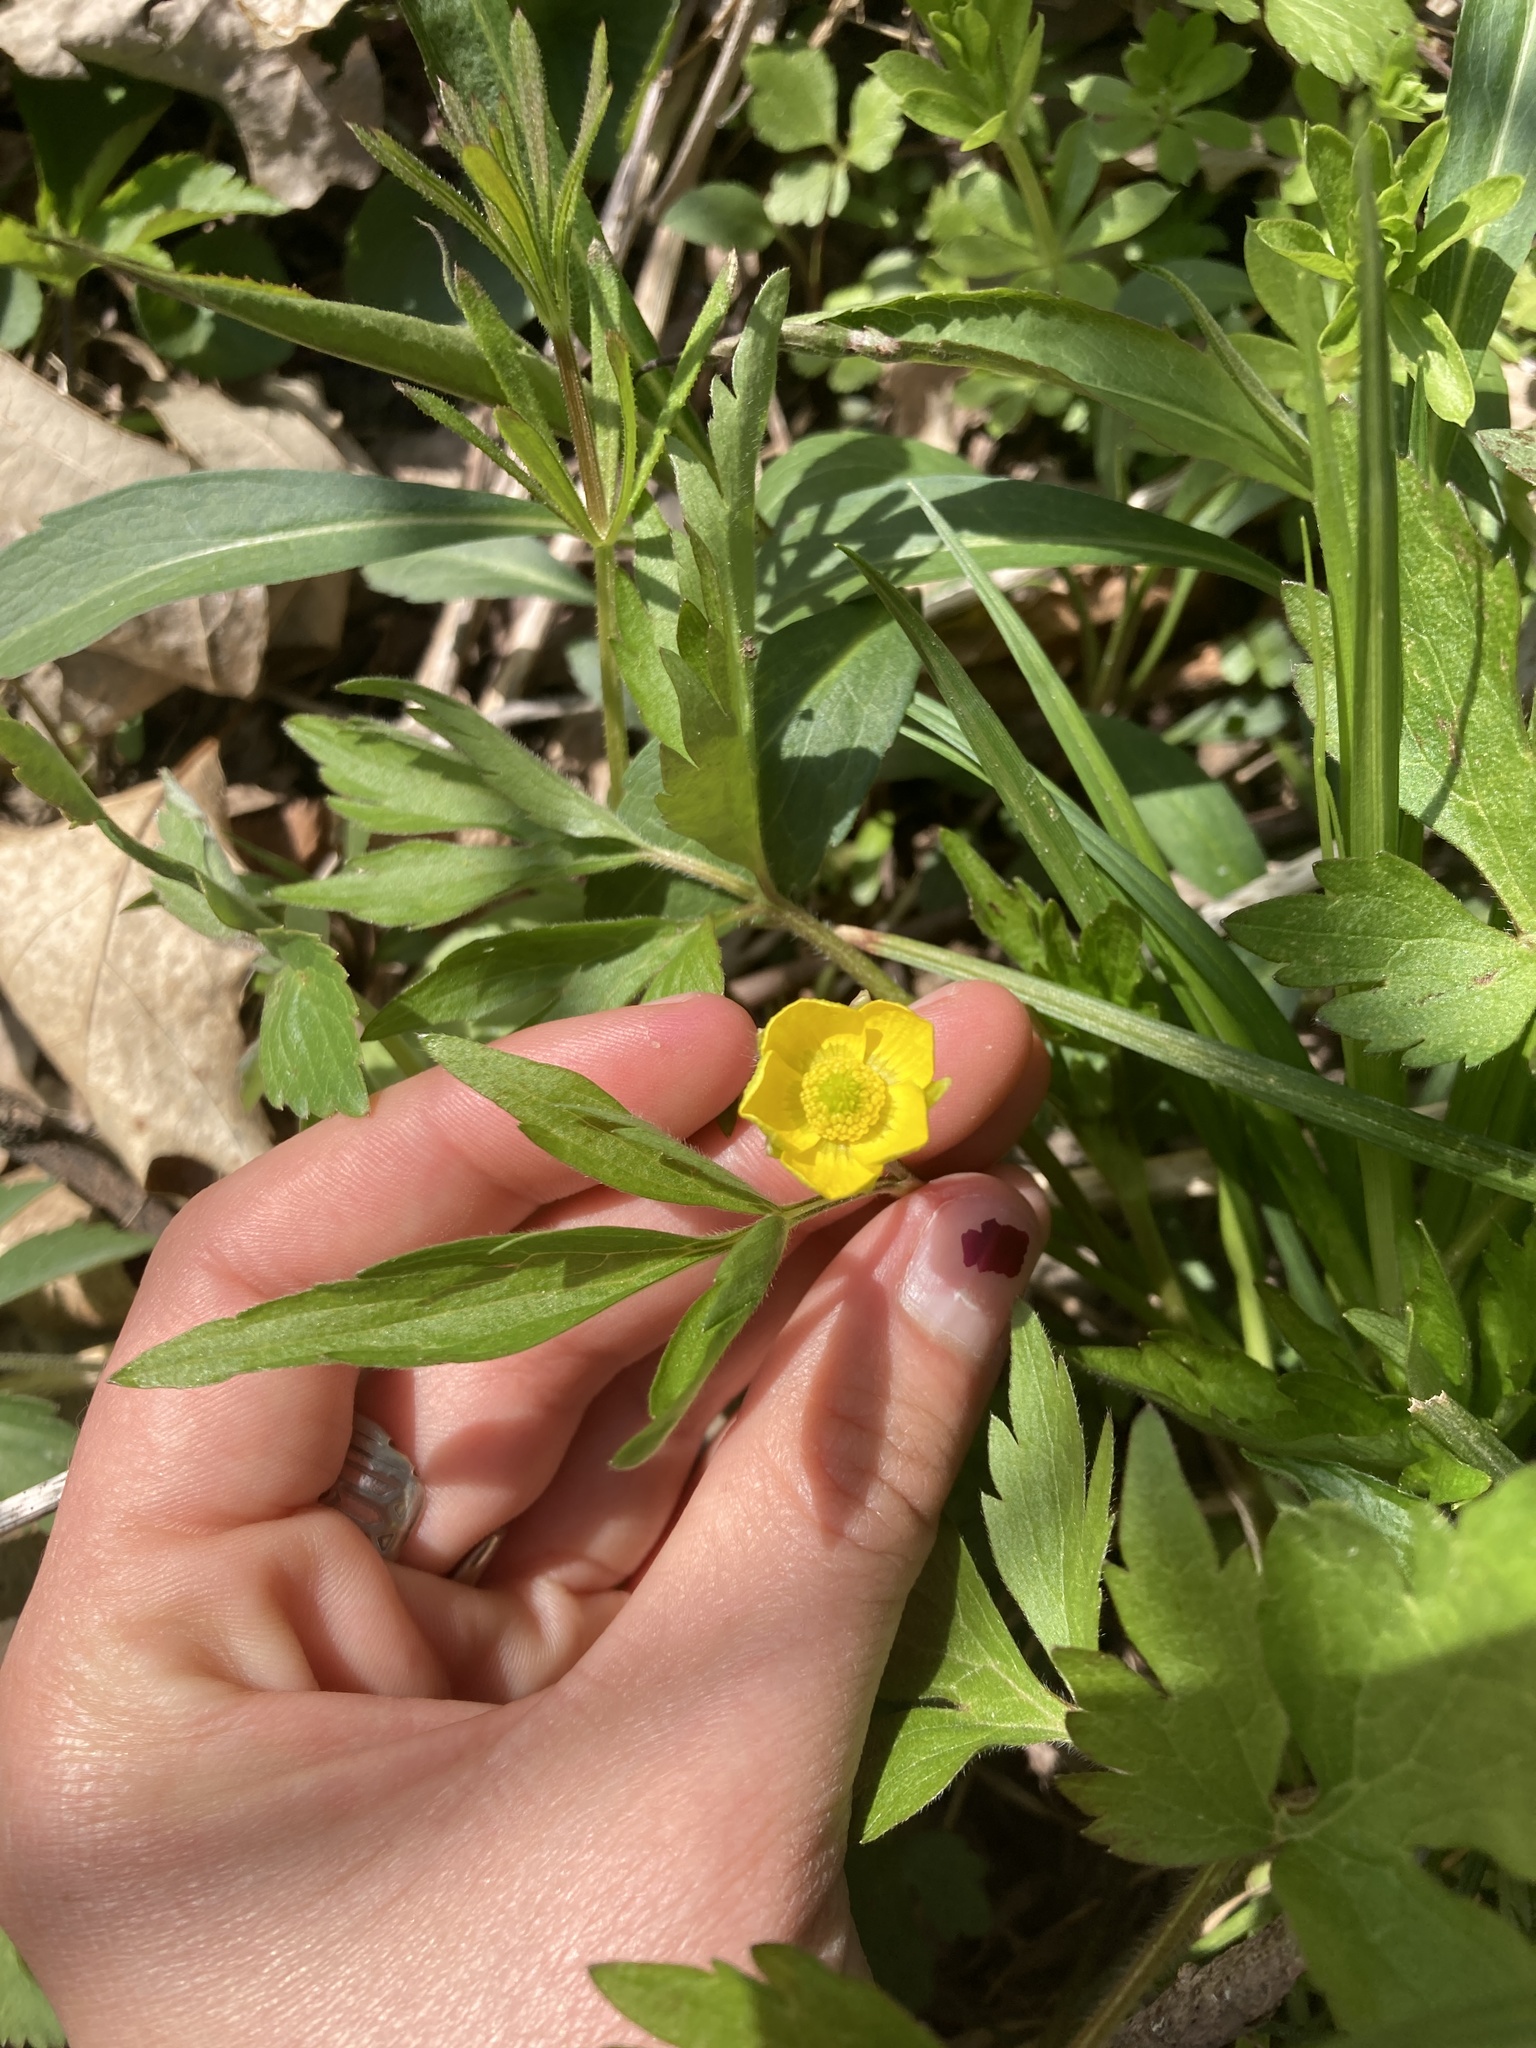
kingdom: Plantae
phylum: Tracheophyta
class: Magnoliopsida
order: Ranunculales
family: Ranunculaceae
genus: Ranunculus
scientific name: Ranunculus hispidus
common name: Bristly buttercup
